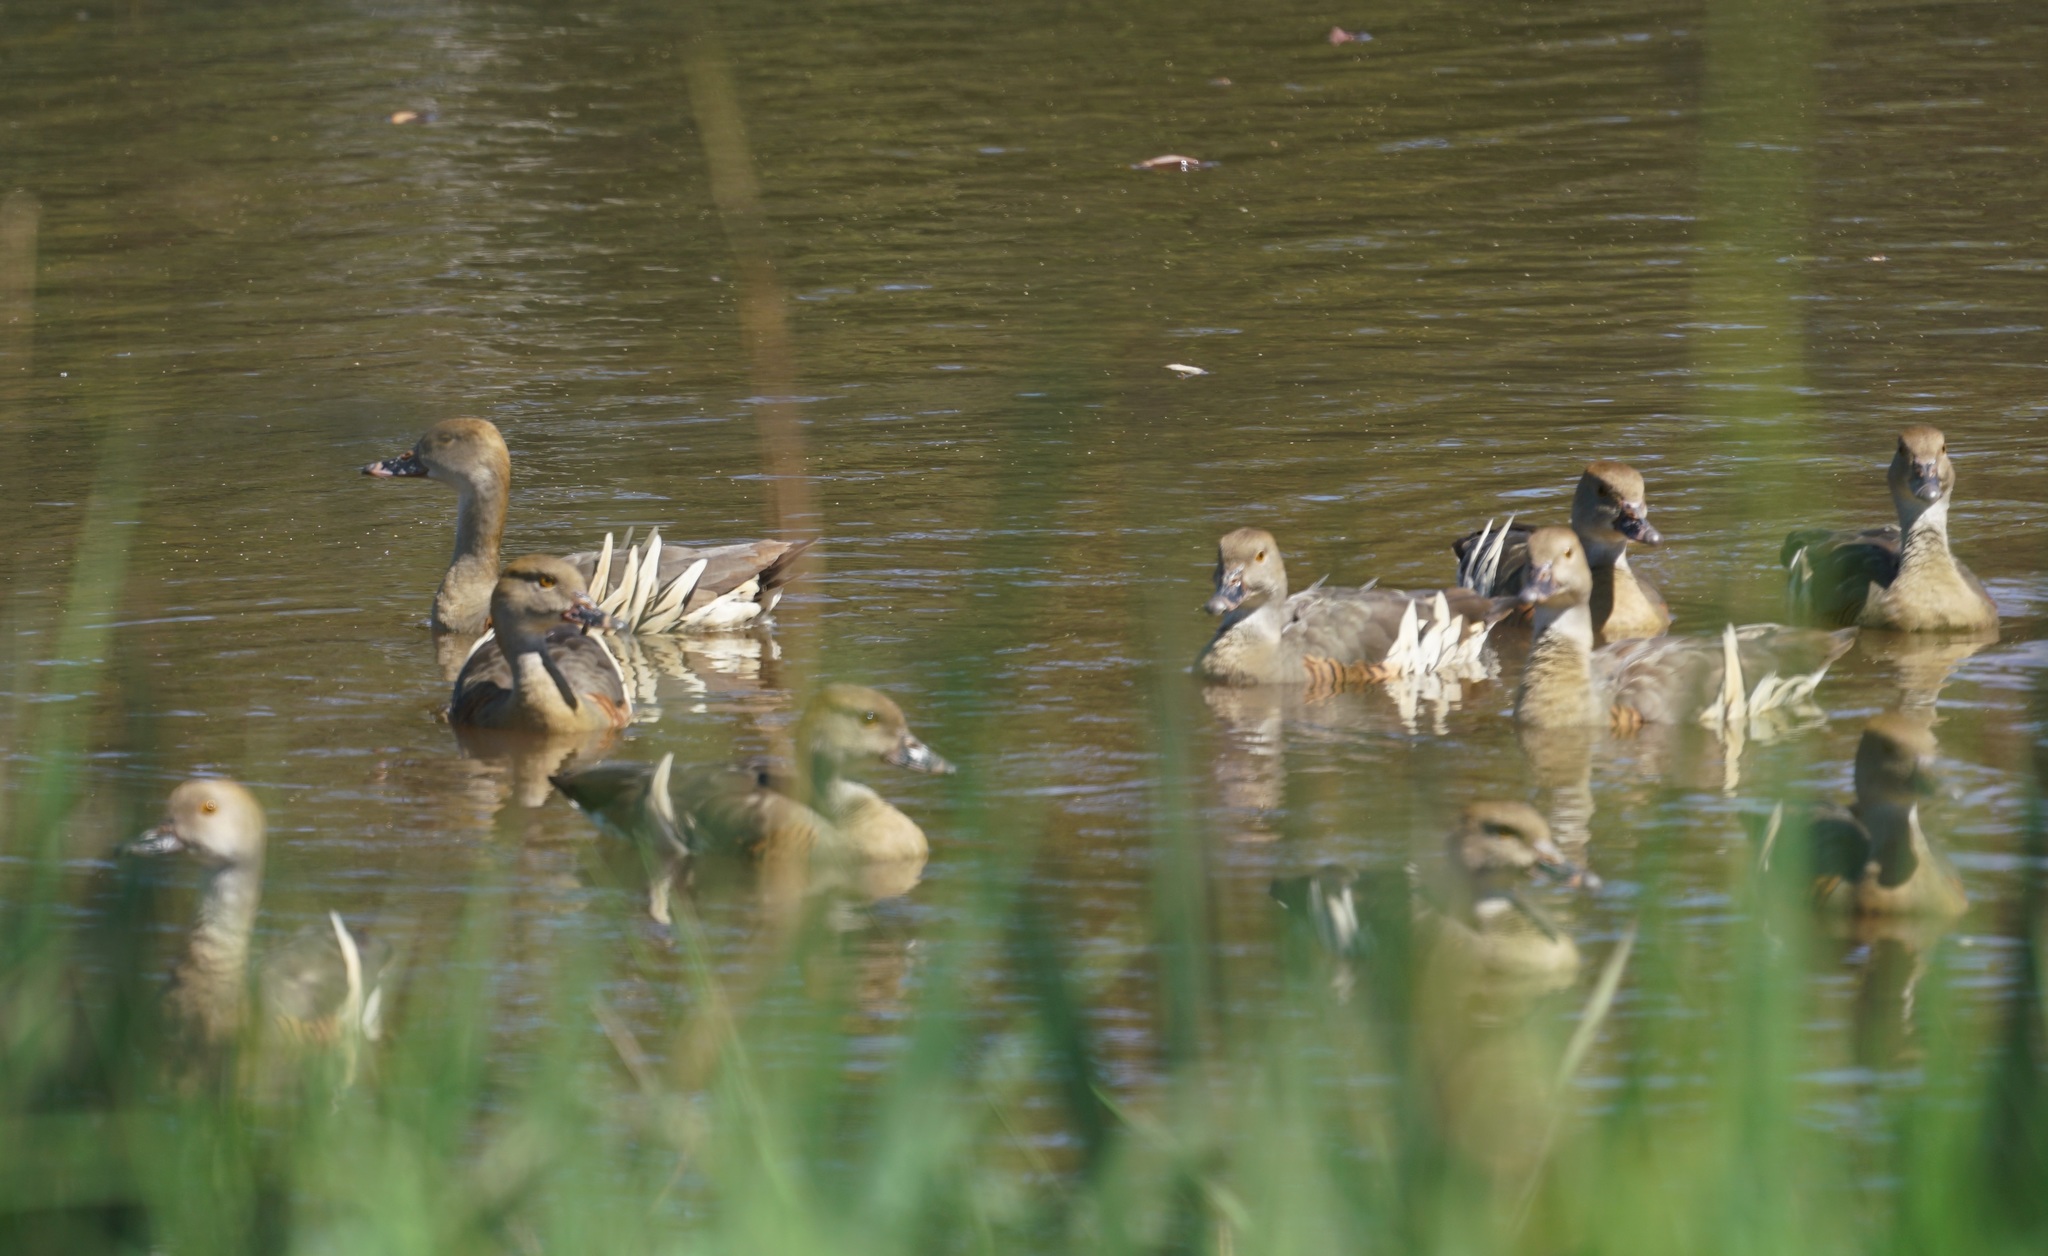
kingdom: Animalia
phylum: Chordata
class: Aves
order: Anseriformes
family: Anatidae
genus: Dendrocygna
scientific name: Dendrocygna eytoni
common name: Plumed whistling-duck
